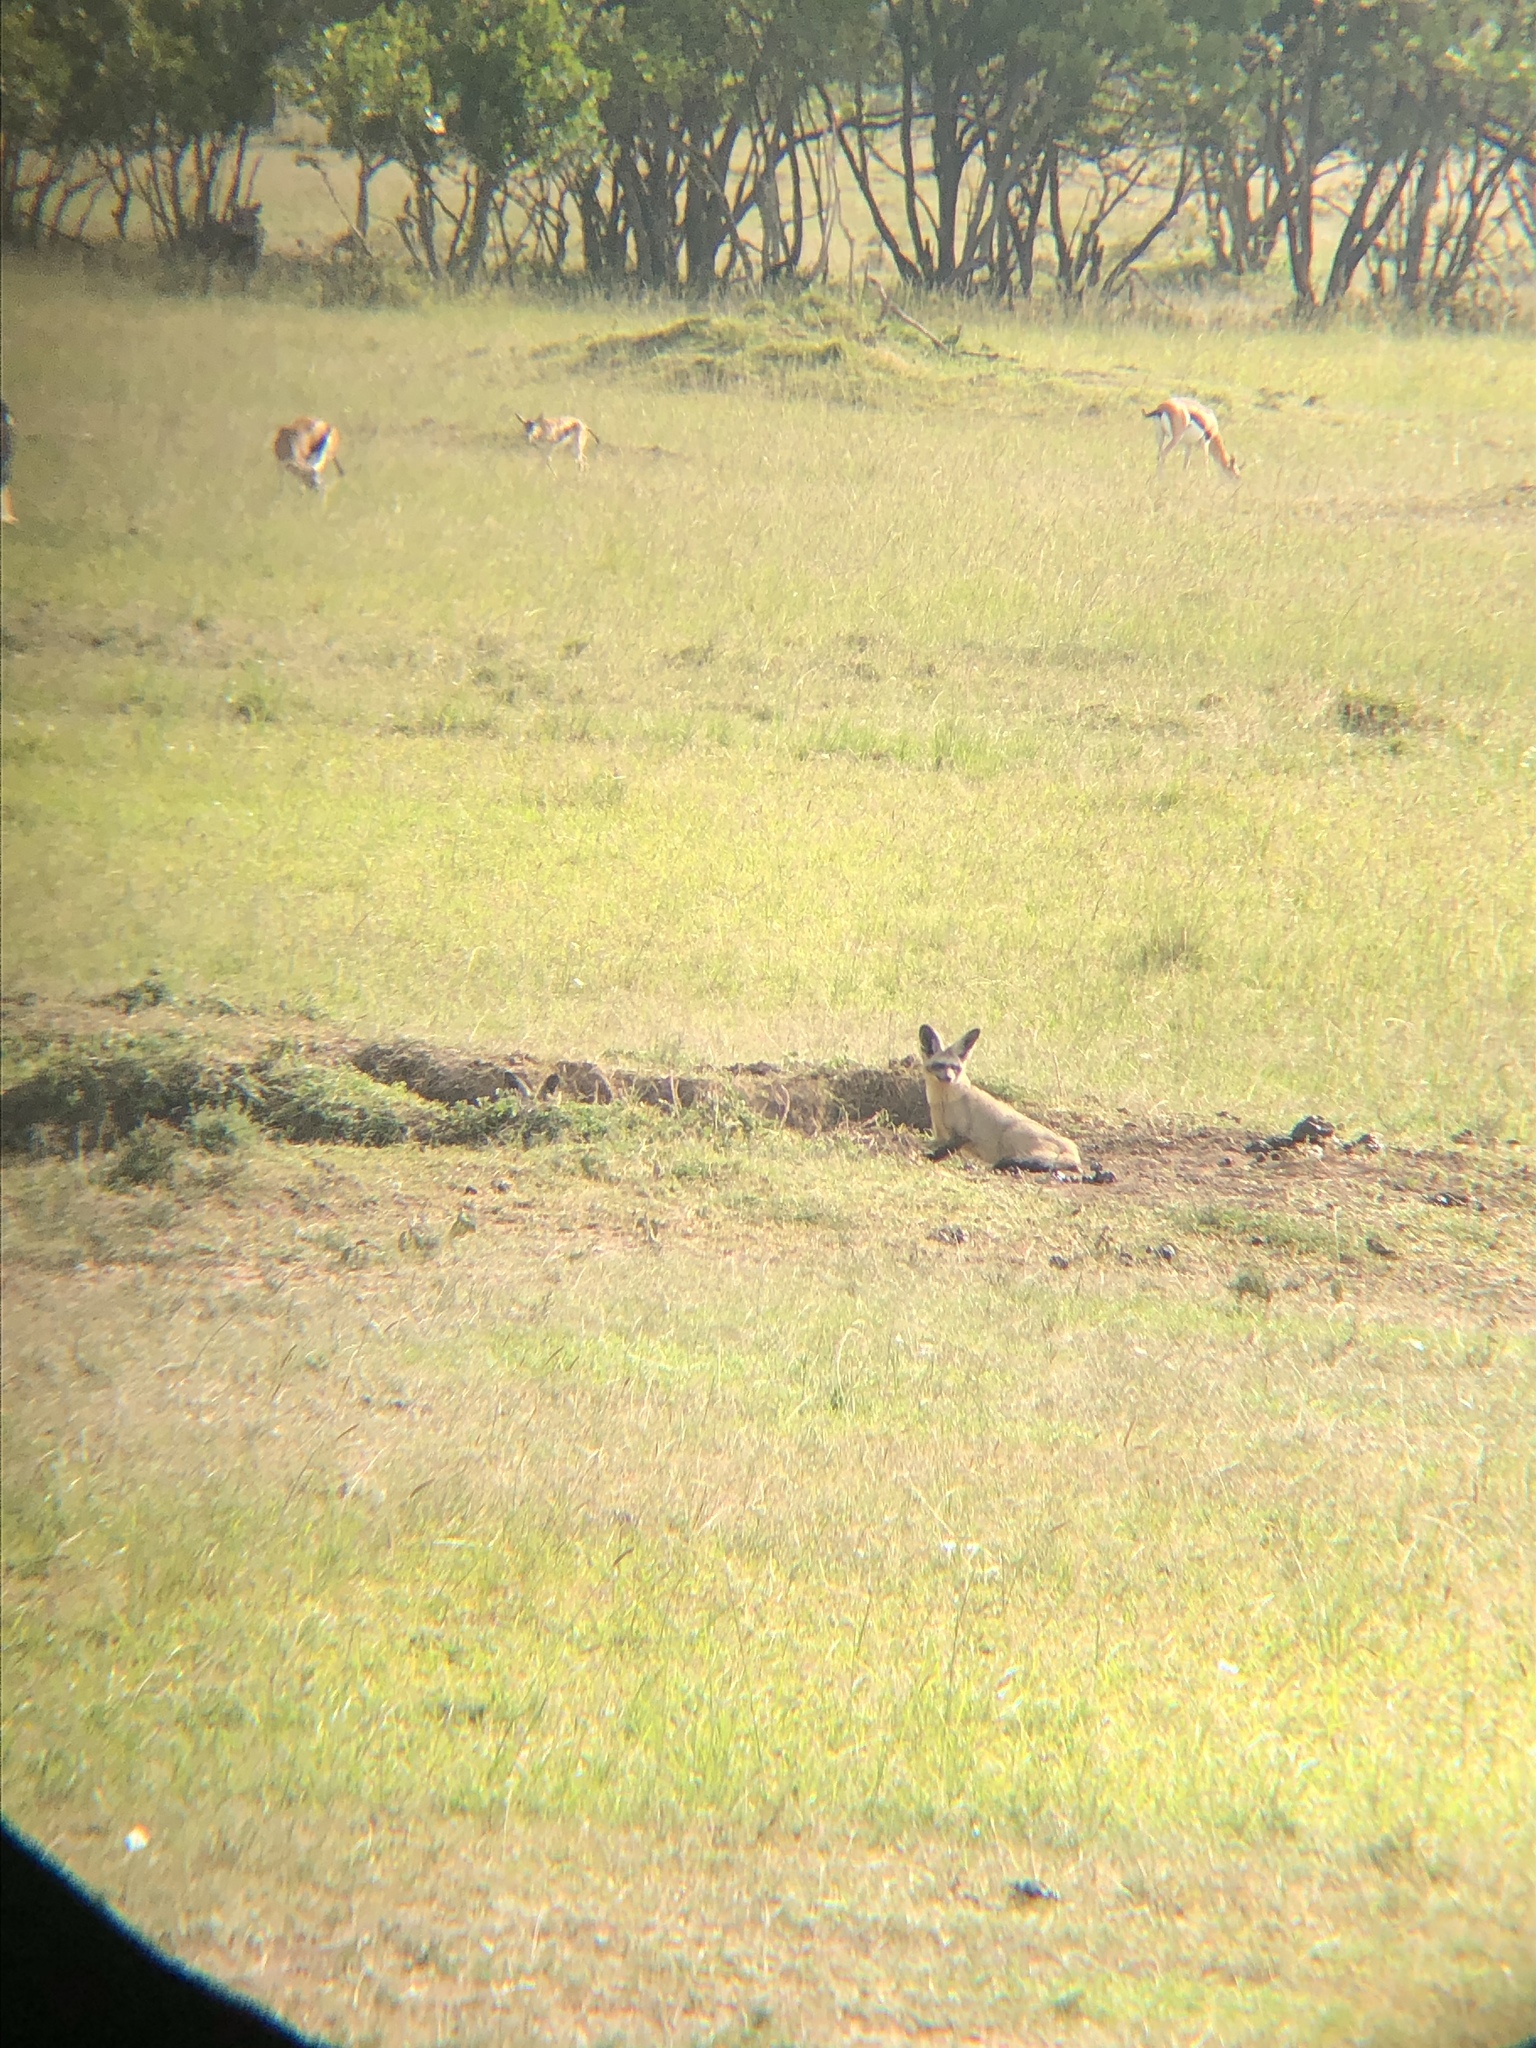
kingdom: Animalia
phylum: Chordata
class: Mammalia
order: Carnivora
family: Canidae
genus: Otocyon
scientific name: Otocyon megalotis
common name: Bat-eared fox
